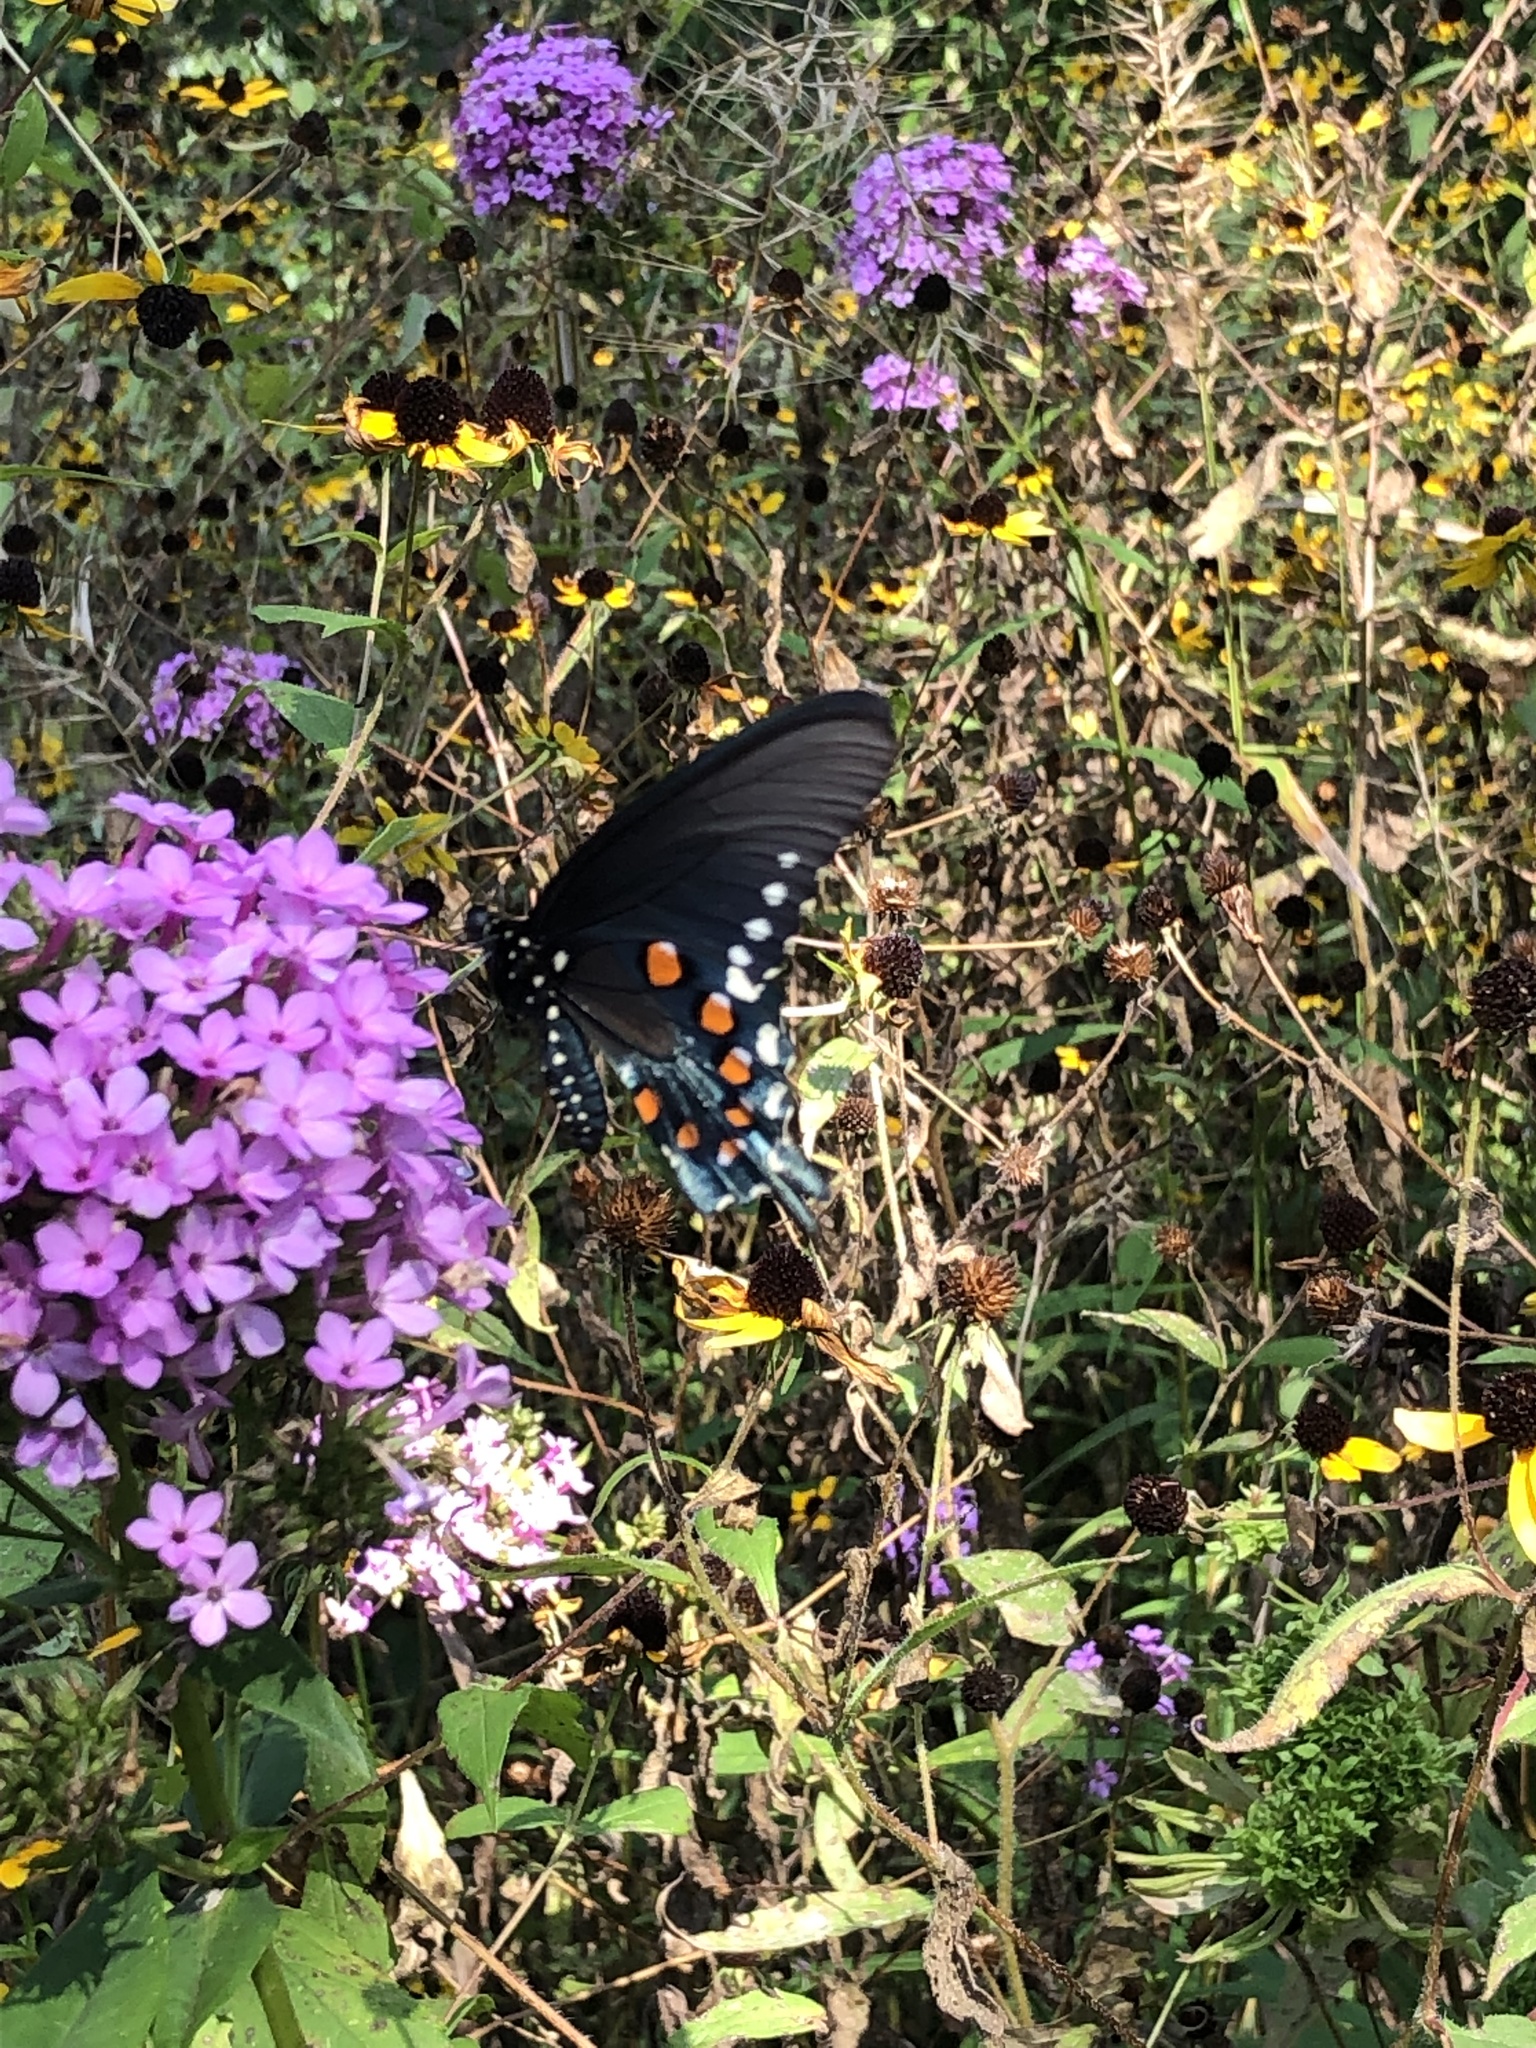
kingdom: Animalia
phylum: Arthropoda
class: Insecta
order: Lepidoptera
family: Papilionidae
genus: Battus
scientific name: Battus philenor
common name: Pipevine swallowtail
